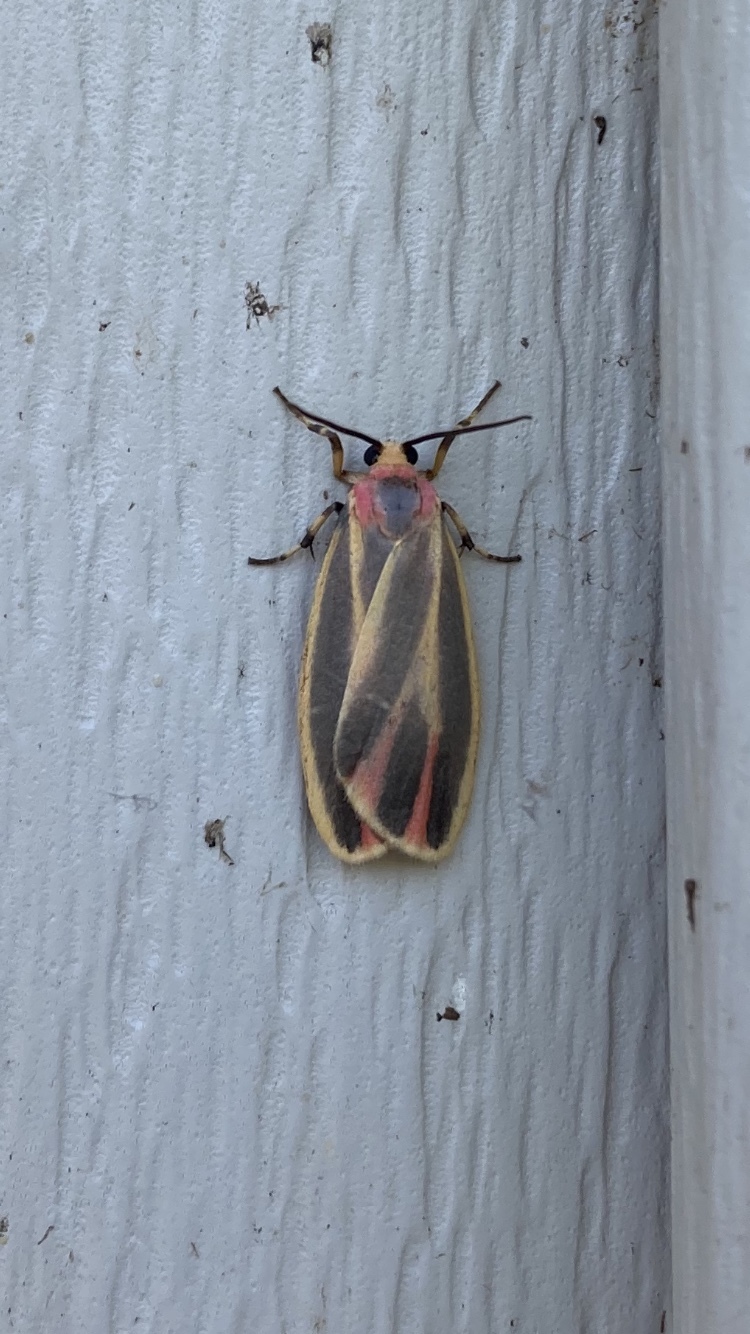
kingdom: Animalia
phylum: Arthropoda
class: Insecta
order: Lepidoptera
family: Erebidae
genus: Hypoprepia
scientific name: Hypoprepia fucosa
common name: Painted lichen moth
